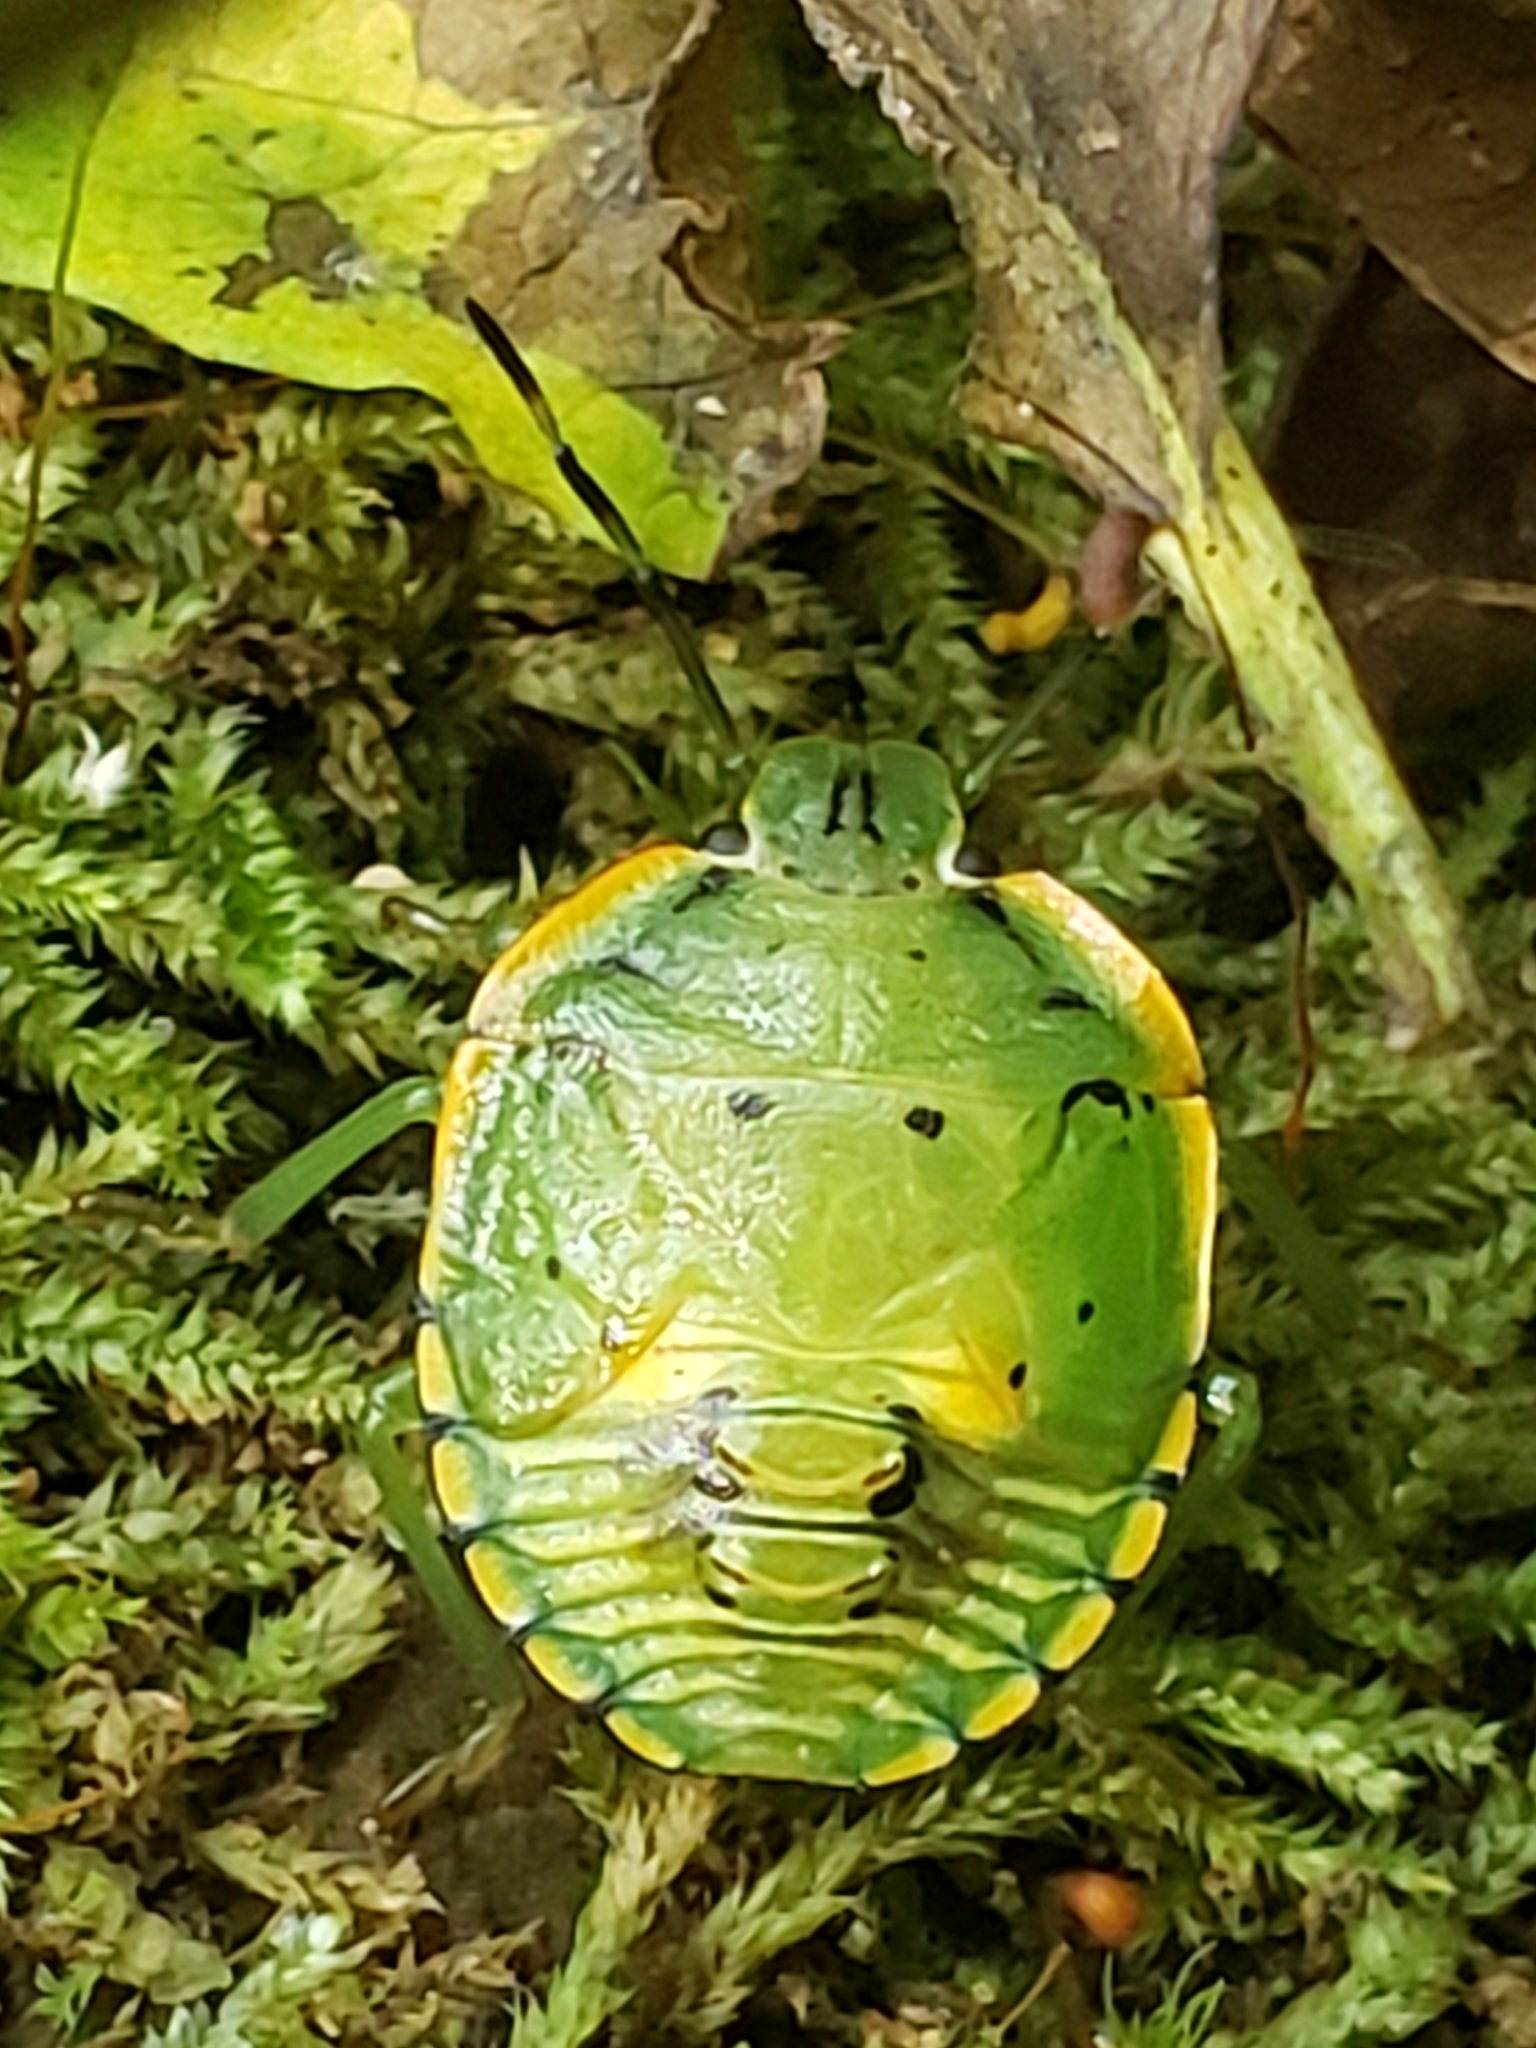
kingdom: Animalia
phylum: Arthropoda
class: Insecta
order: Hemiptera
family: Pentatomidae
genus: Chinavia
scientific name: Chinavia hilaris
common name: Green stink bug
